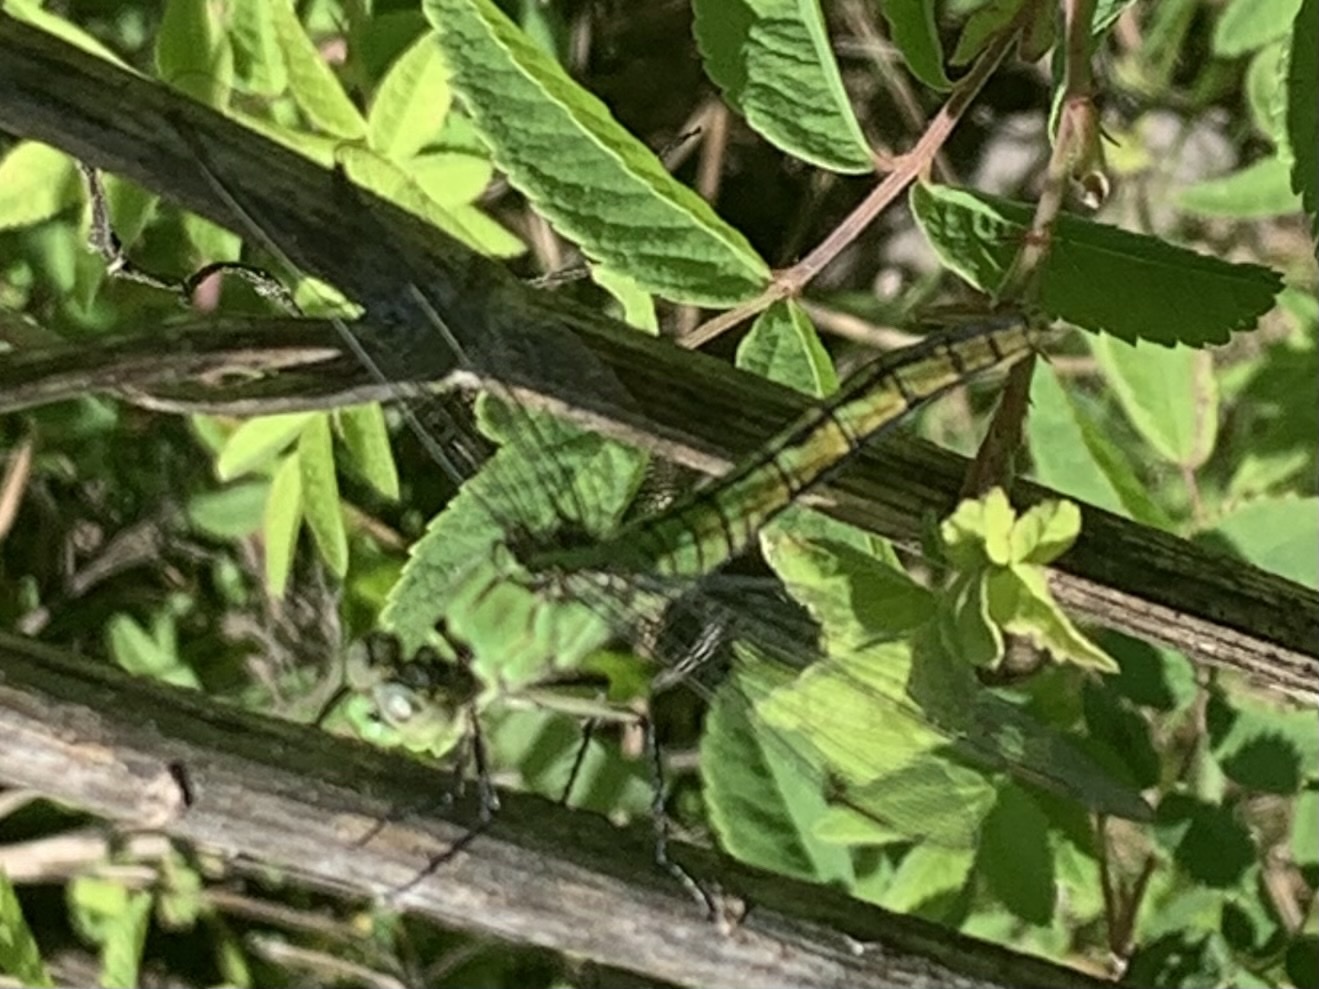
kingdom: Animalia
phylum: Arthropoda
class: Insecta
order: Odonata
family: Libellulidae
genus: Erythemis
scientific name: Erythemis collocata
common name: Western pondhawk
